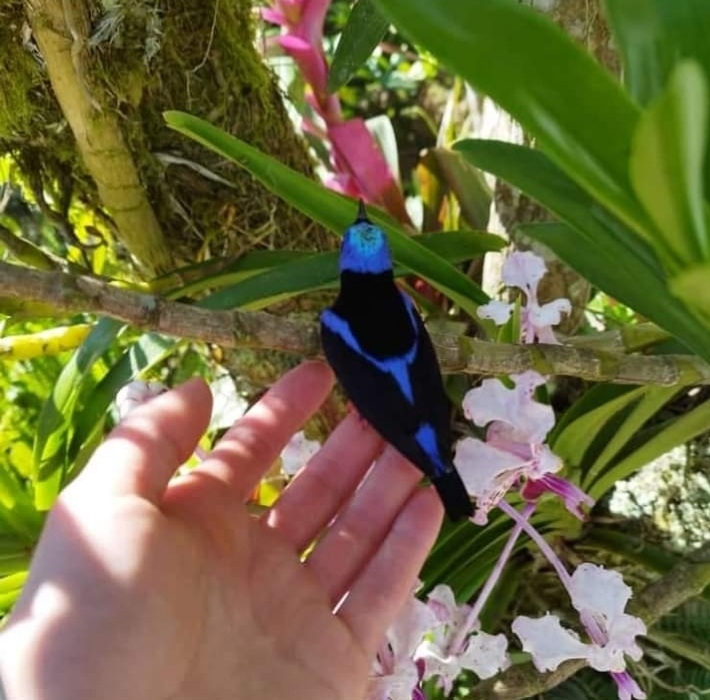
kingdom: Animalia
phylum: Chordata
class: Aves
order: Passeriformes
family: Thraupidae
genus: Cyanerpes
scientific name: Cyanerpes cyaneus
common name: Red-legged honeycreeper
